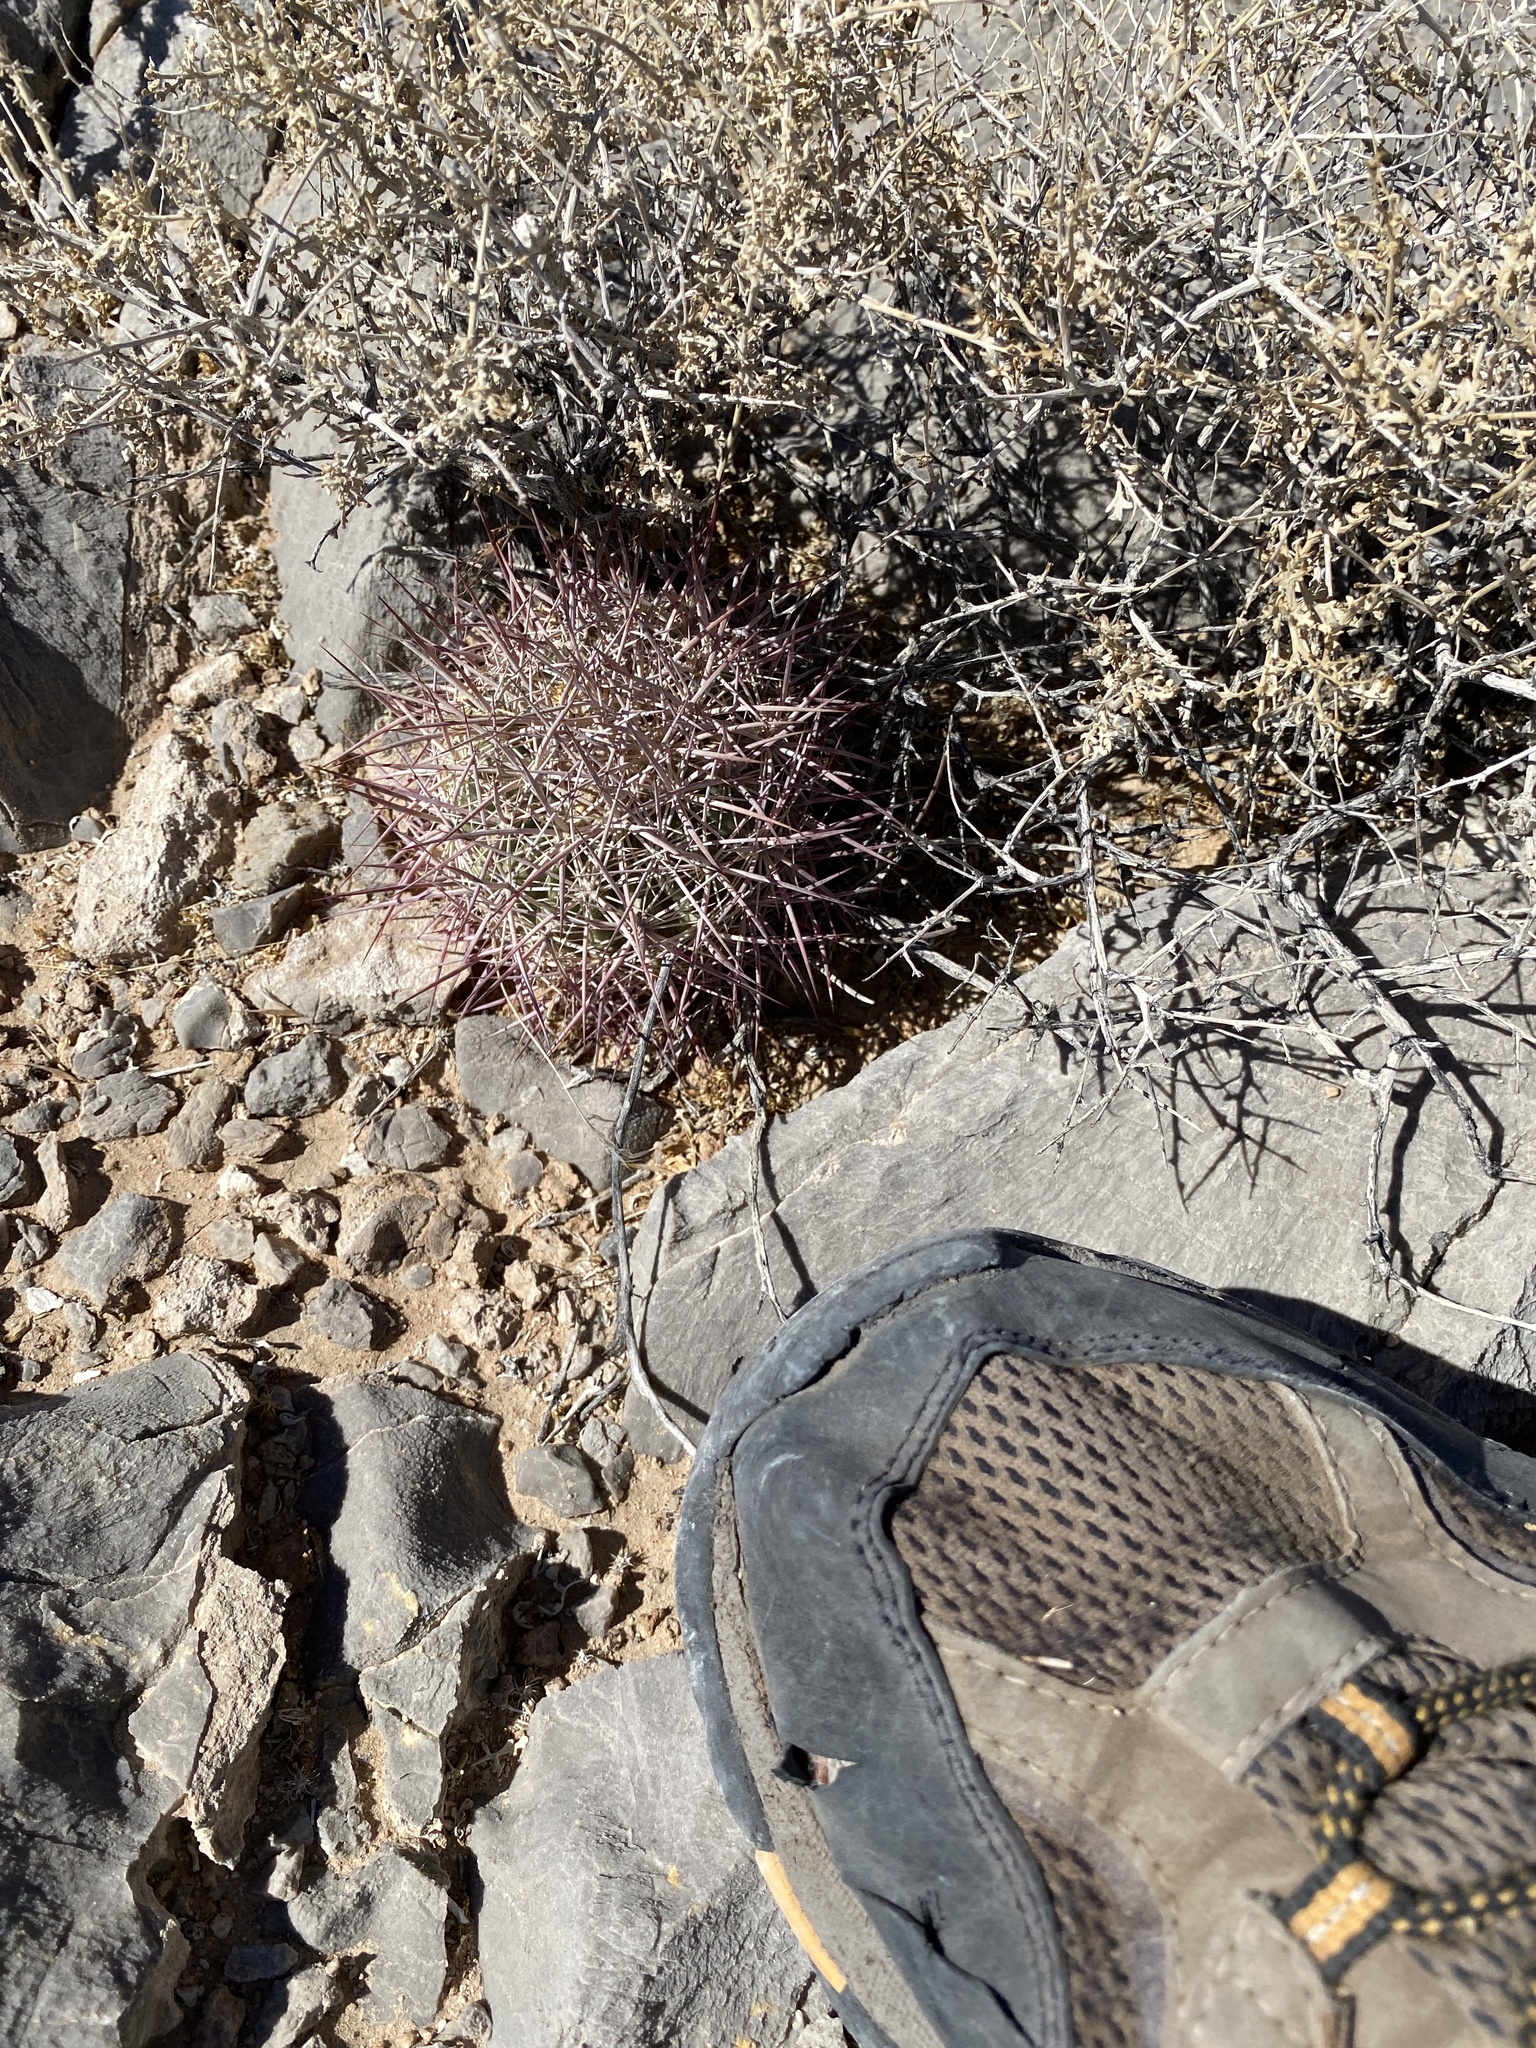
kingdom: Plantae
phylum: Tracheophyta
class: Magnoliopsida
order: Caryophyllales
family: Cactaceae
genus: Sclerocactus
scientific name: Sclerocactus johnsonii
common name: Eight-spine fishhook cactus
